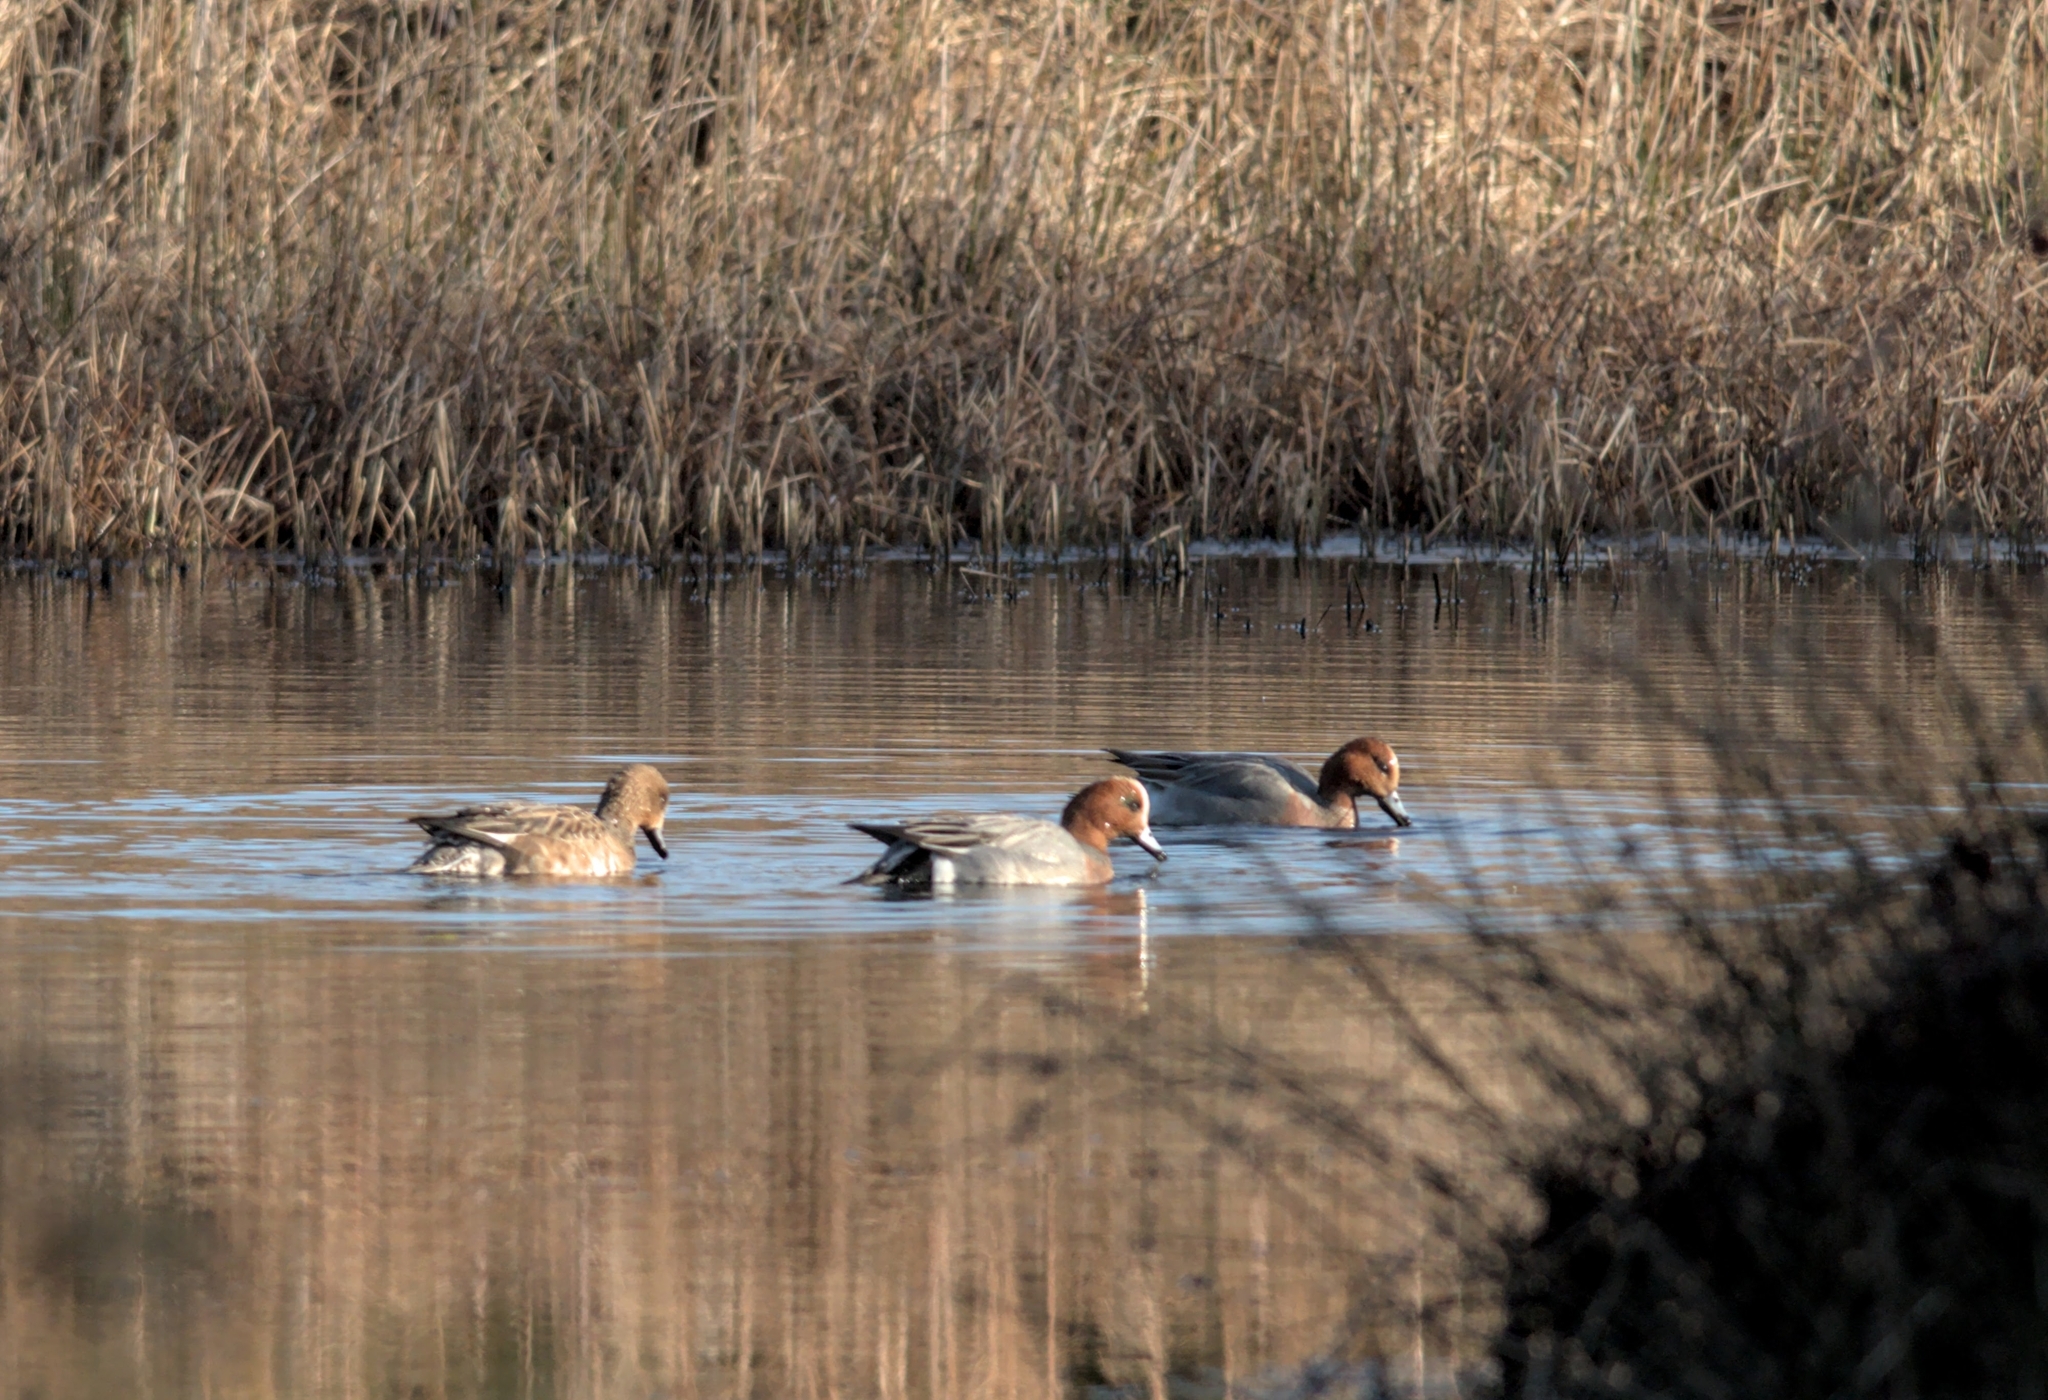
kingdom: Animalia
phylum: Chordata
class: Aves
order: Anseriformes
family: Anatidae
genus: Mareca
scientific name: Mareca penelope
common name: Eurasian wigeon
